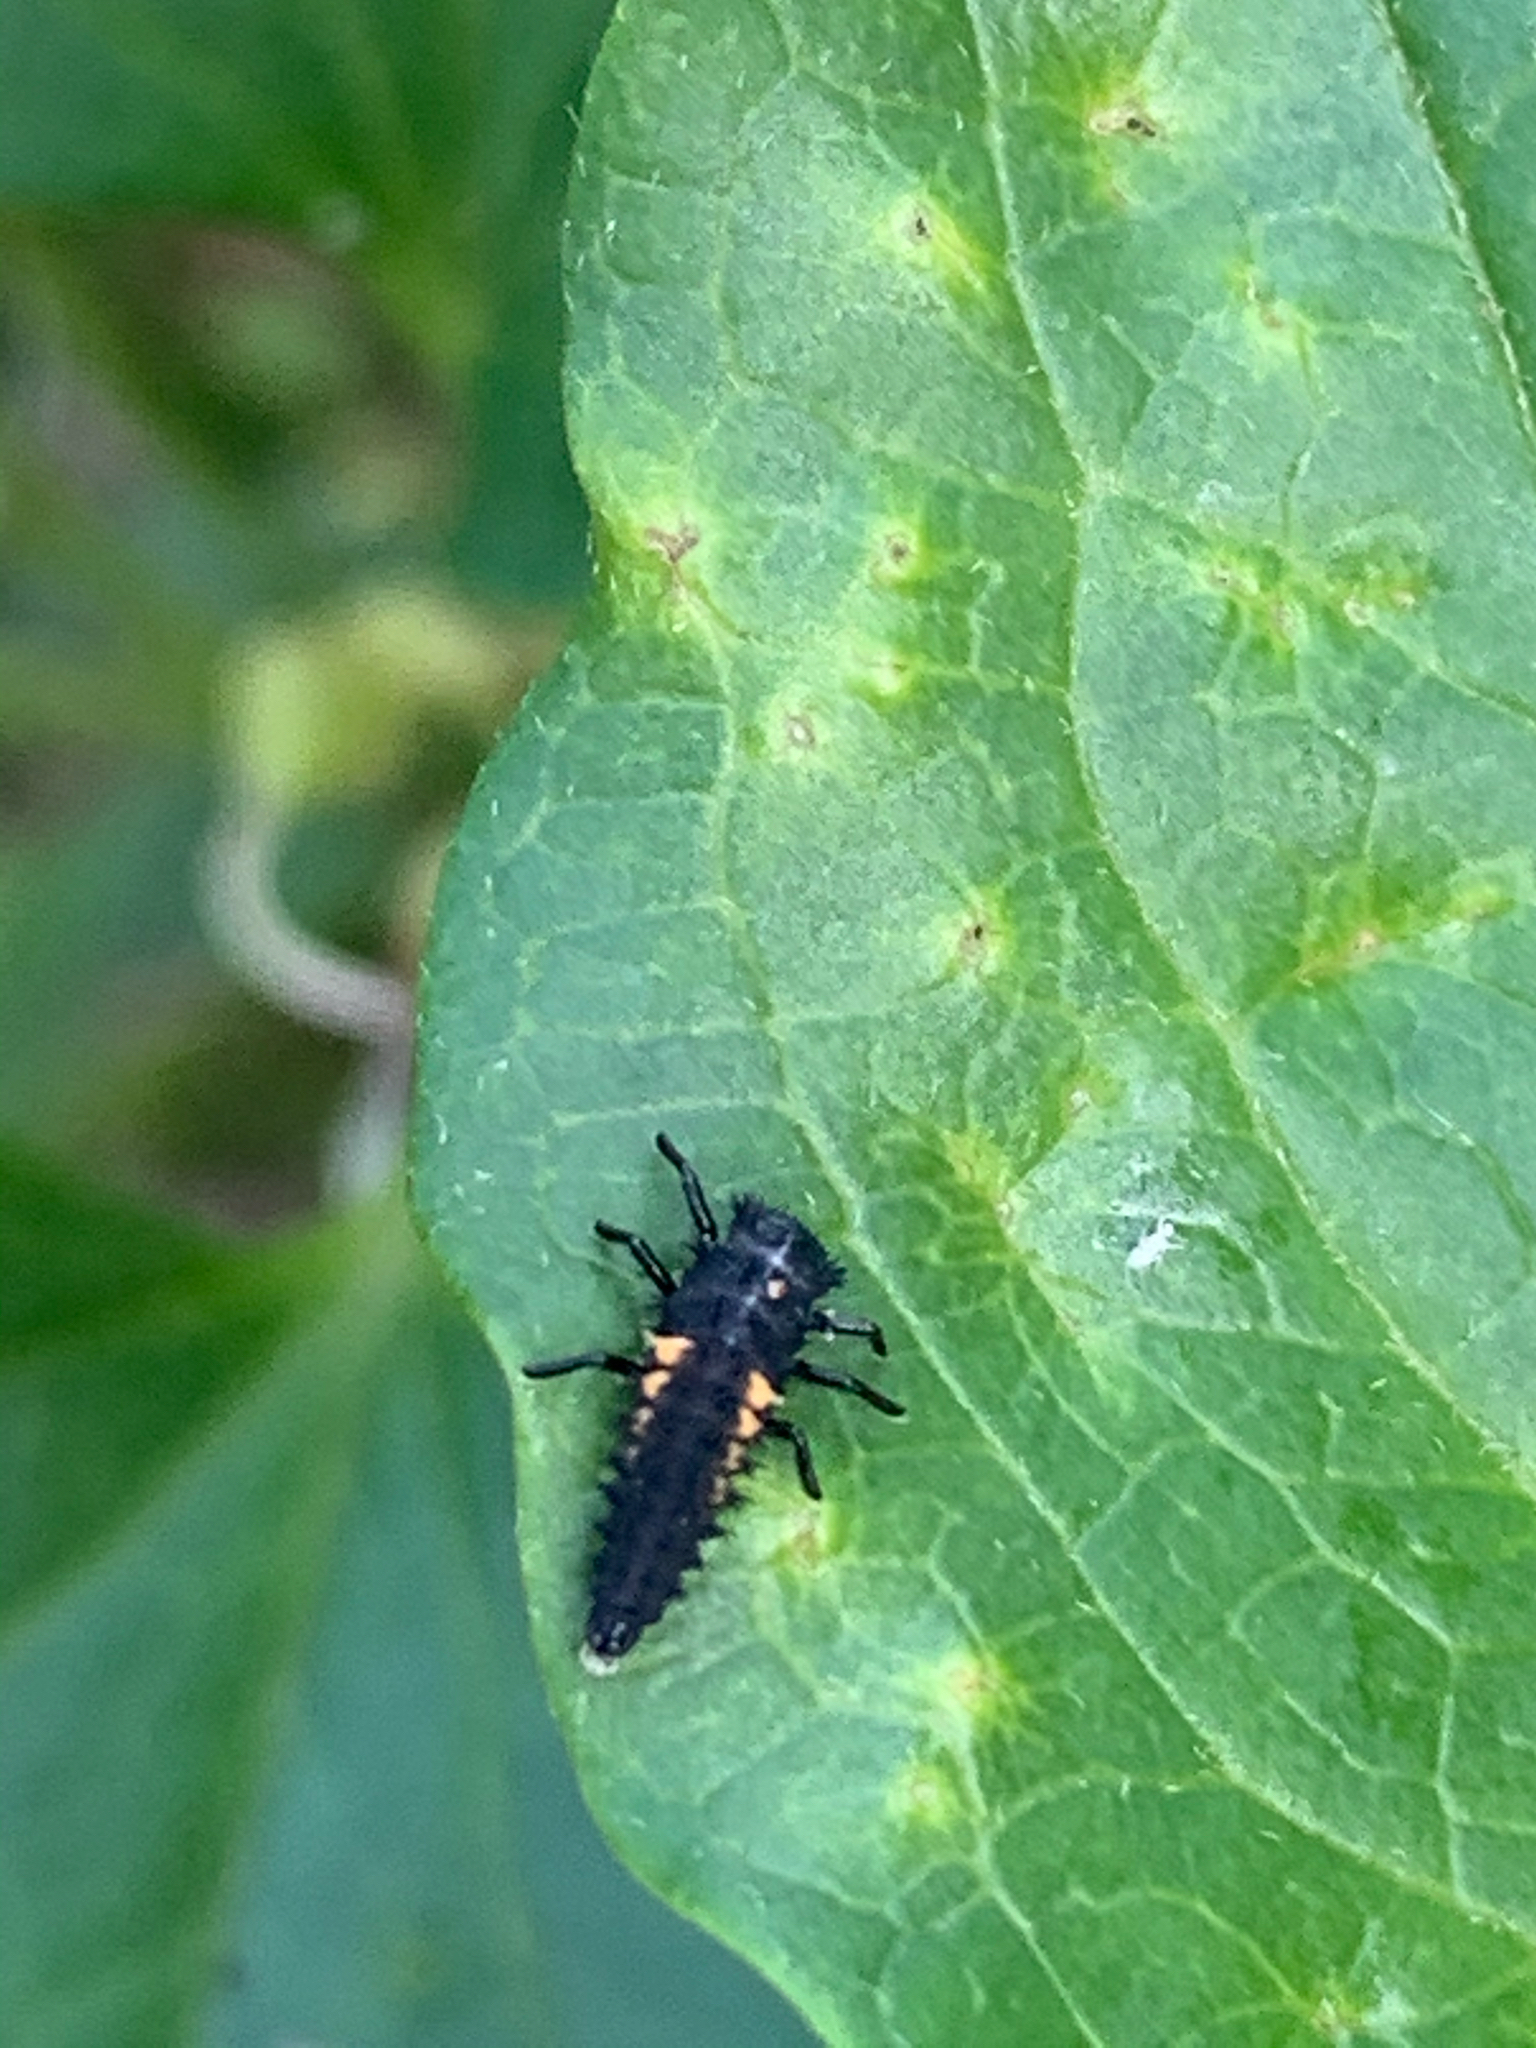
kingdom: Animalia
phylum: Arthropoda
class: Insecta
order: Coleoptera
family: Coccinellidae
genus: Harmonia
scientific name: Harmonia axyridis
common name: Harlequin ladybird
